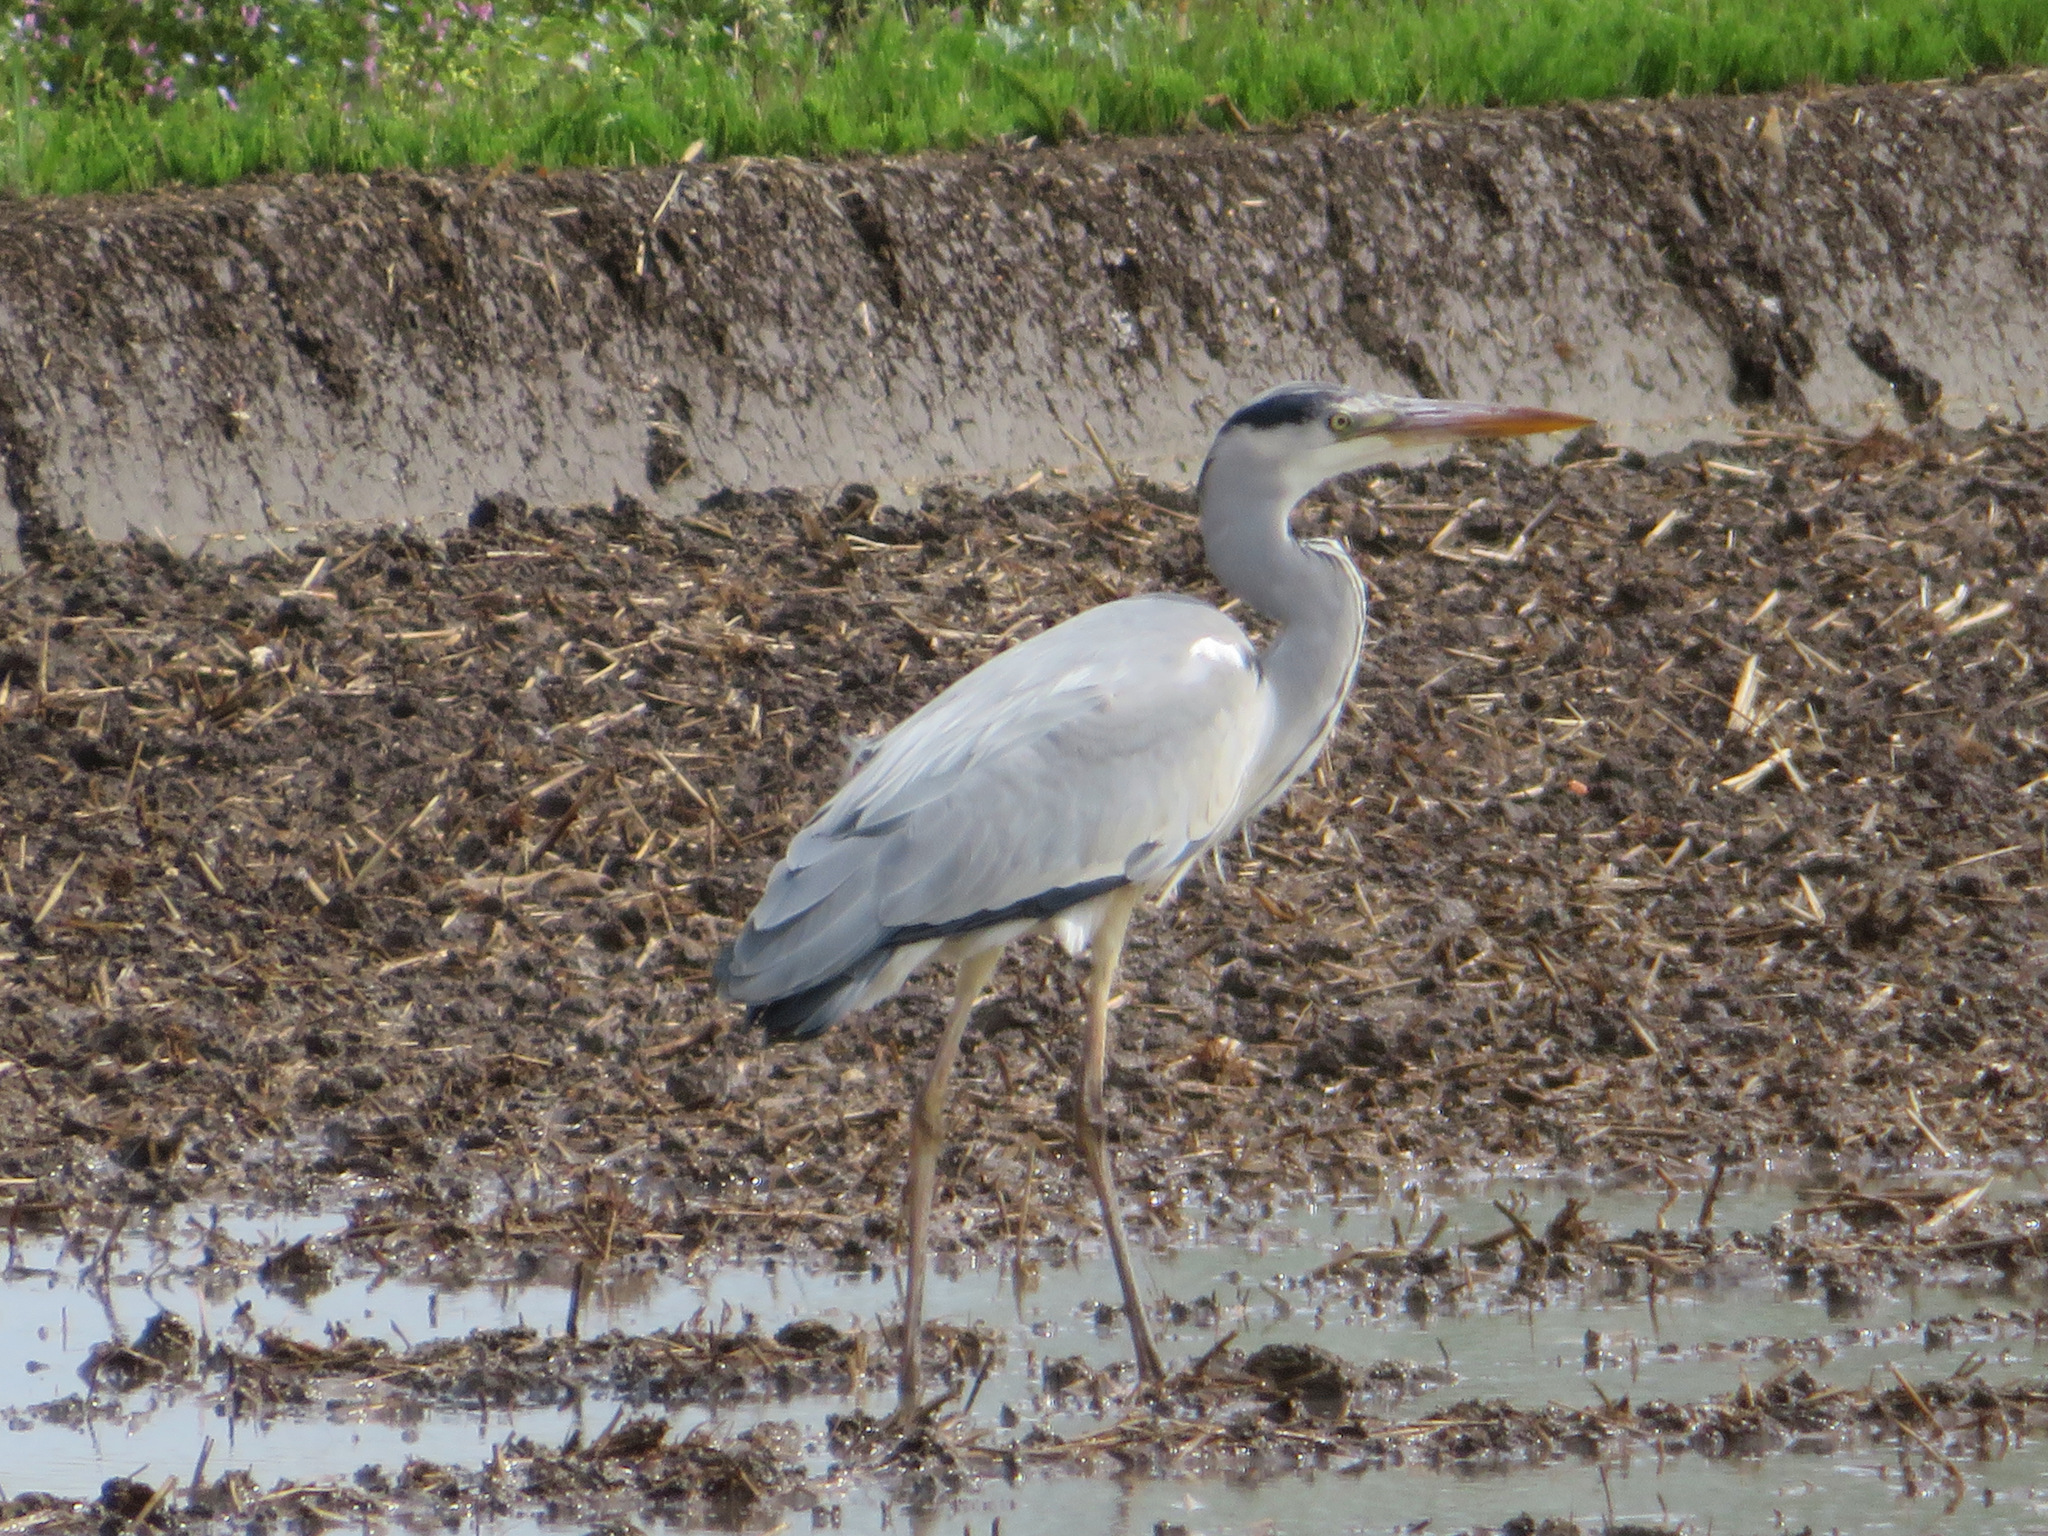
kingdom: Animalia
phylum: Chordata
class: Aves
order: Pelecaniformes
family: Ardeidae
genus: Ardea
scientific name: Ardea cinerea
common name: Grey heron
